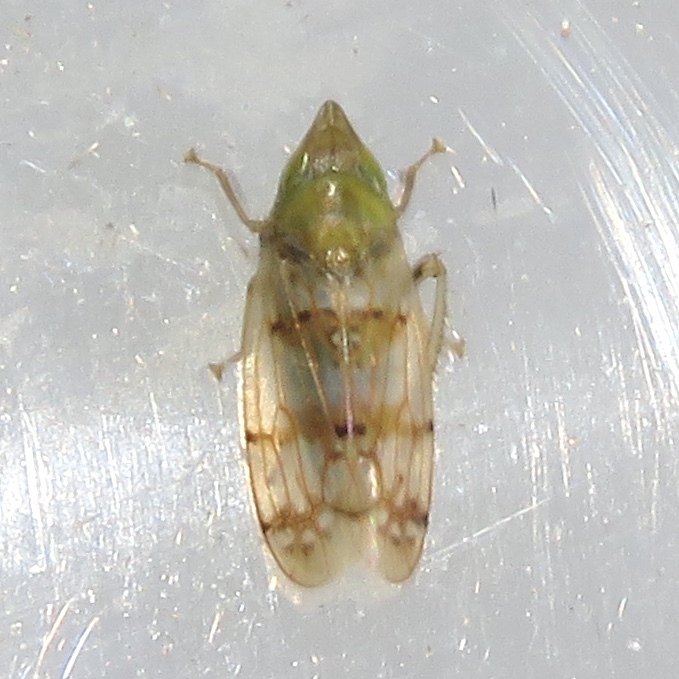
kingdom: Animalia
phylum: Arthropoda
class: Insecta
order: Hemiptera
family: Cicadellidae
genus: Japananus
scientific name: Japananus hyalinus
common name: The japanese maple leafhopper
